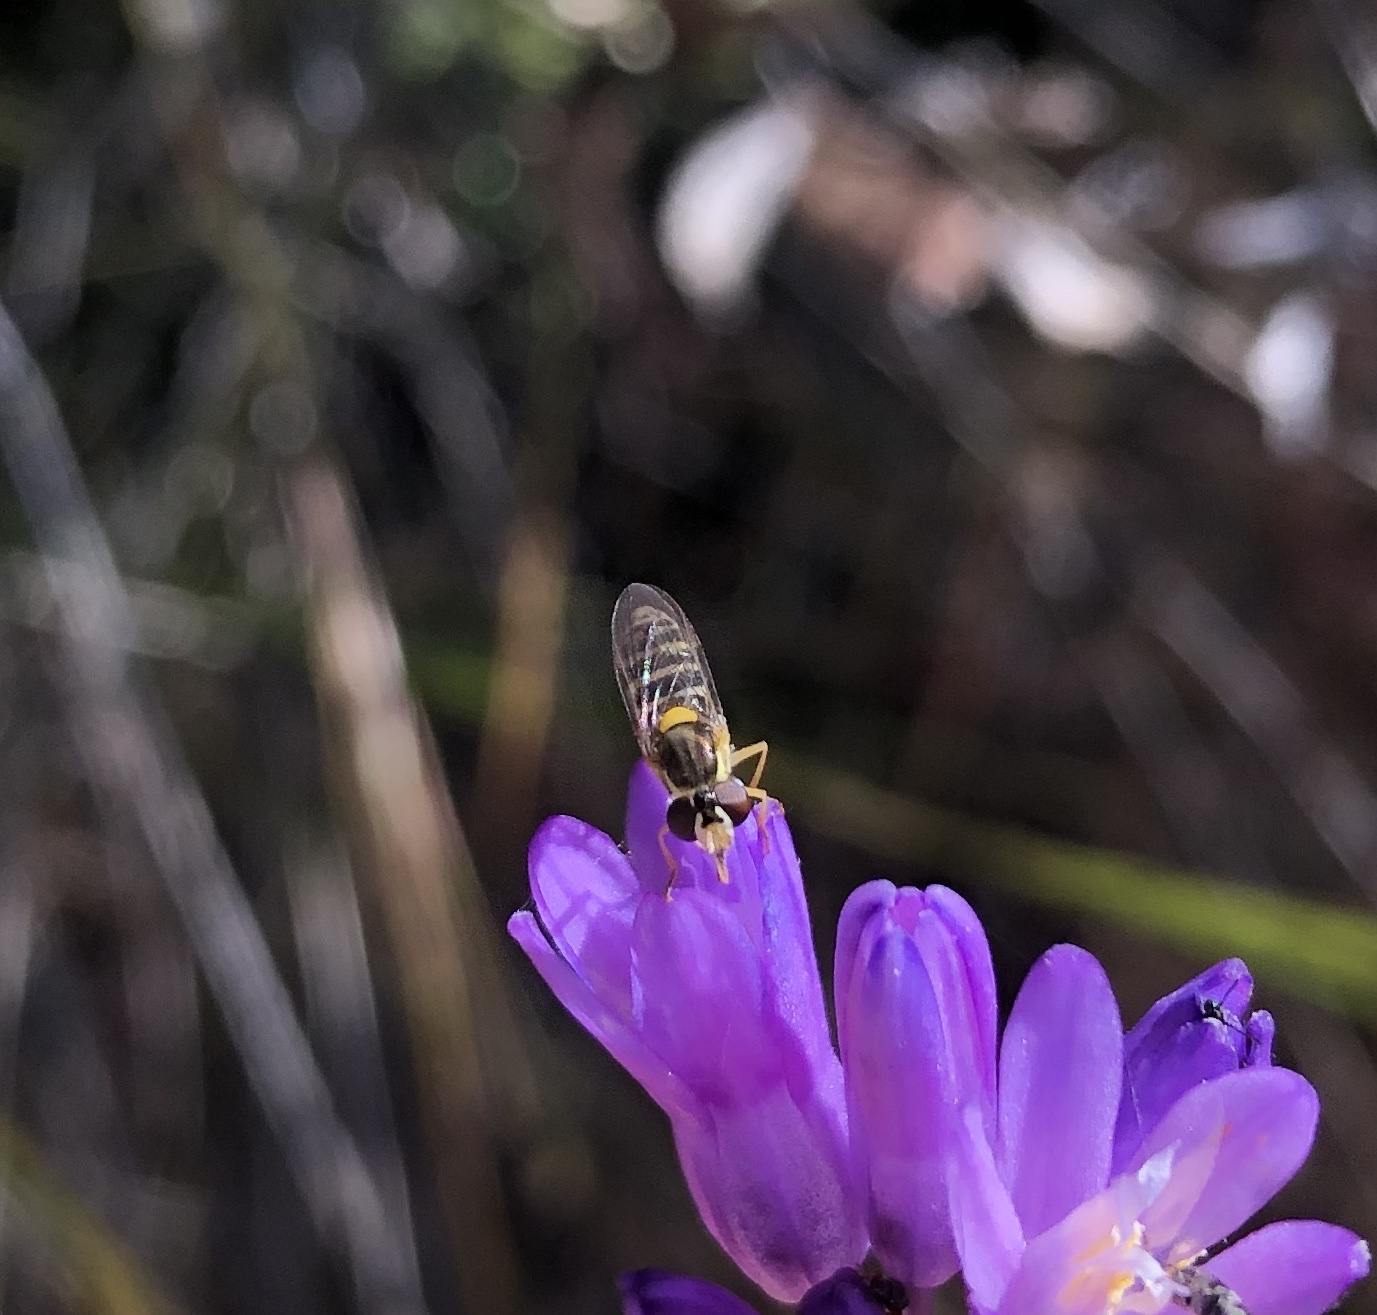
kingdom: Animalia
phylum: Arthropoda
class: Insecta
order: Diptera
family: Syrphidae
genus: Sphaerophoria
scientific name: Sphaerophoria sulphuripes
